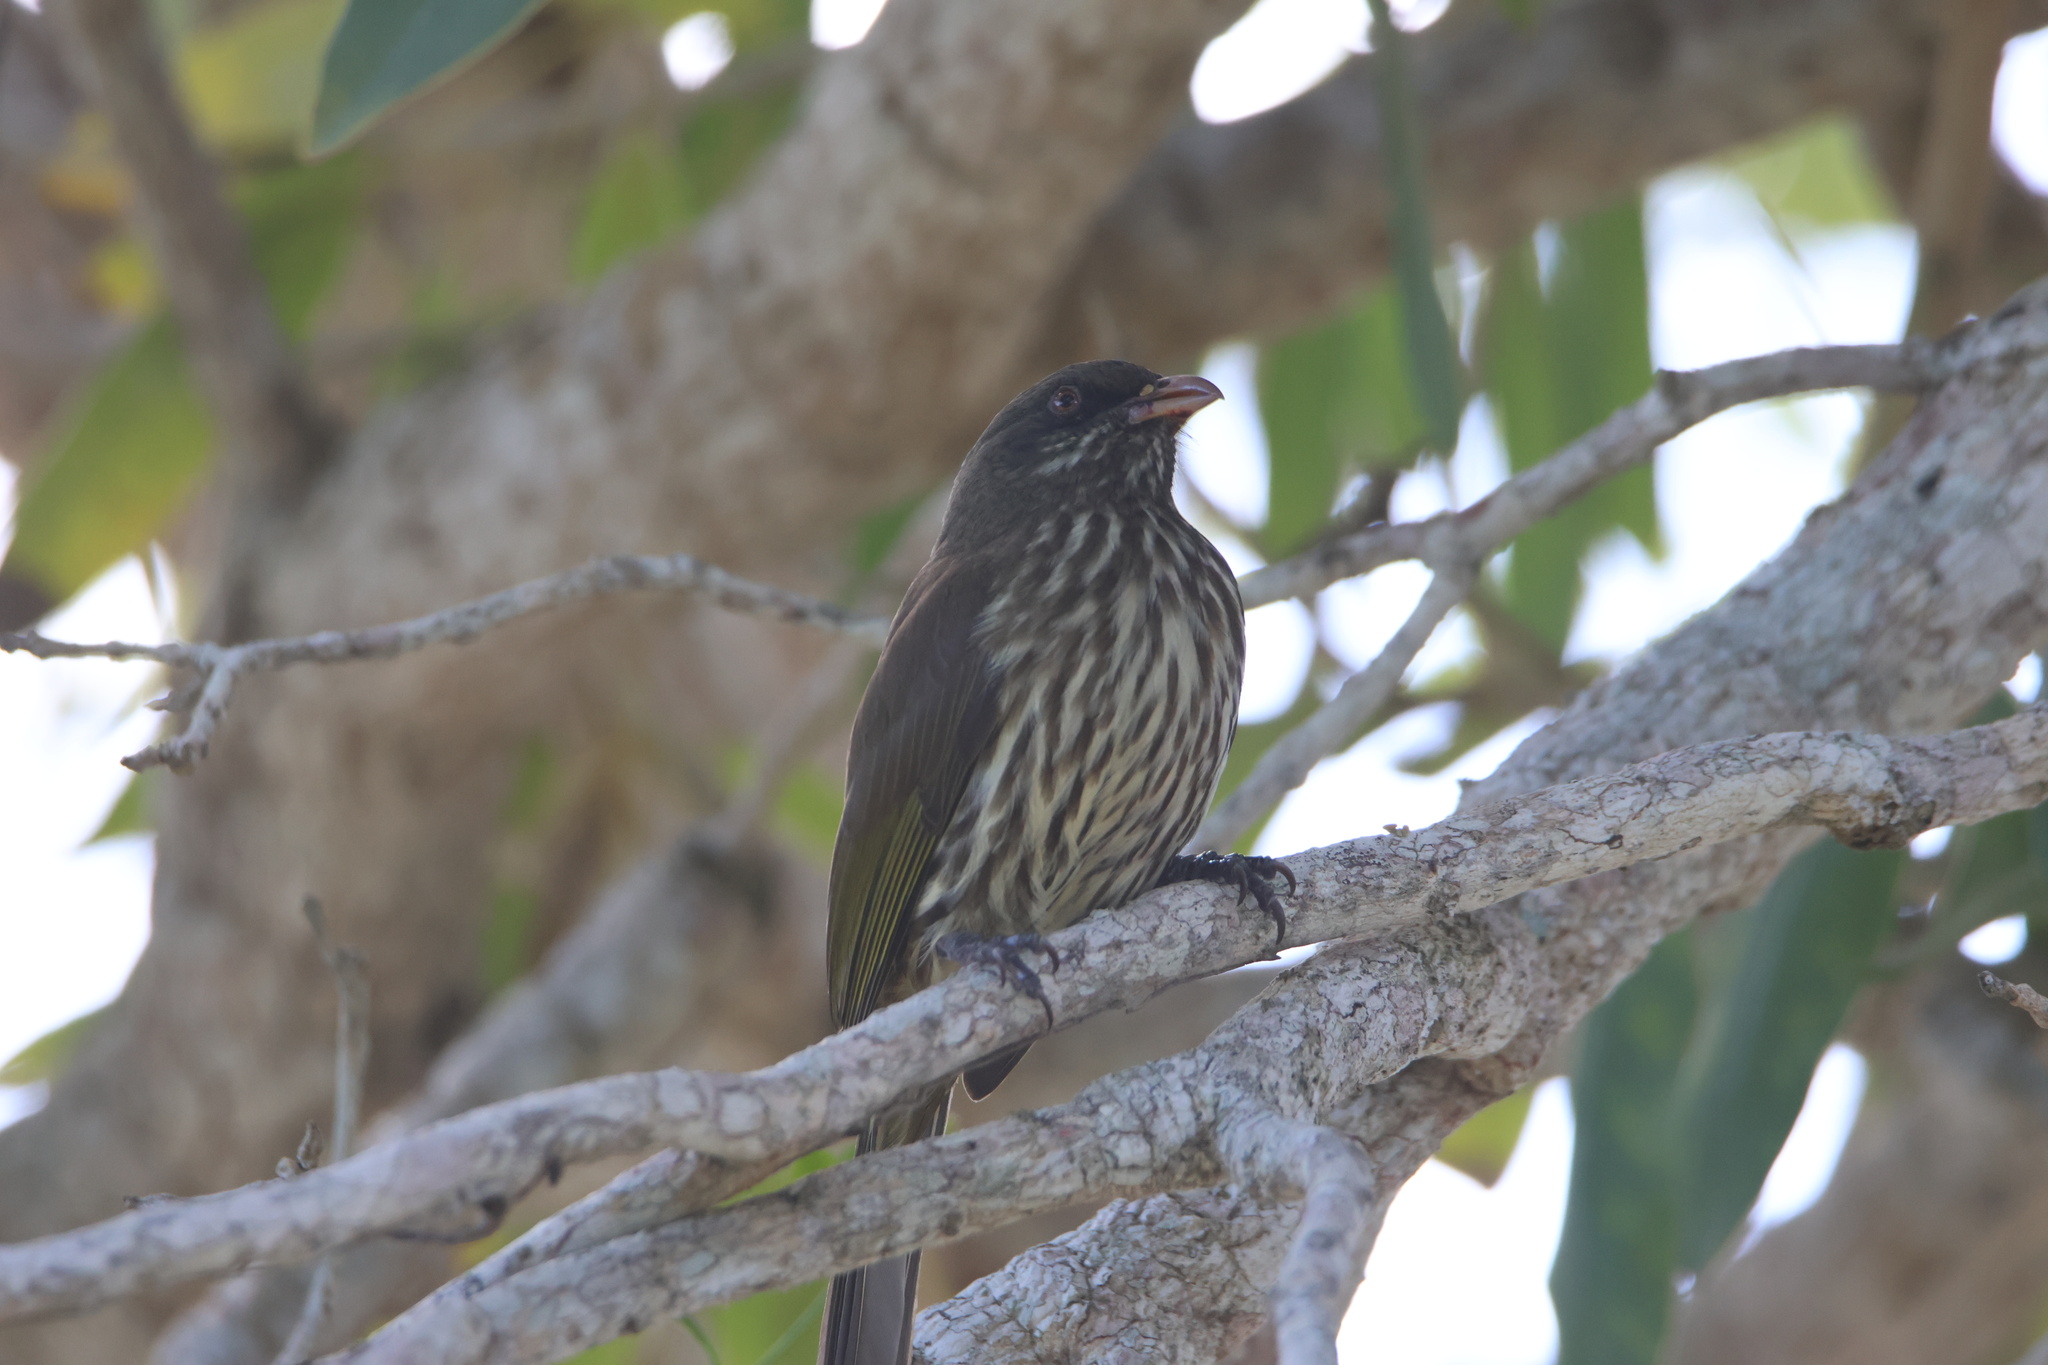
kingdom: Animalia
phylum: Chordata
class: Aves
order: Passeriformes
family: Dulidae
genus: Dulus
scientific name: Dulus dominicus
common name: Palmchat
